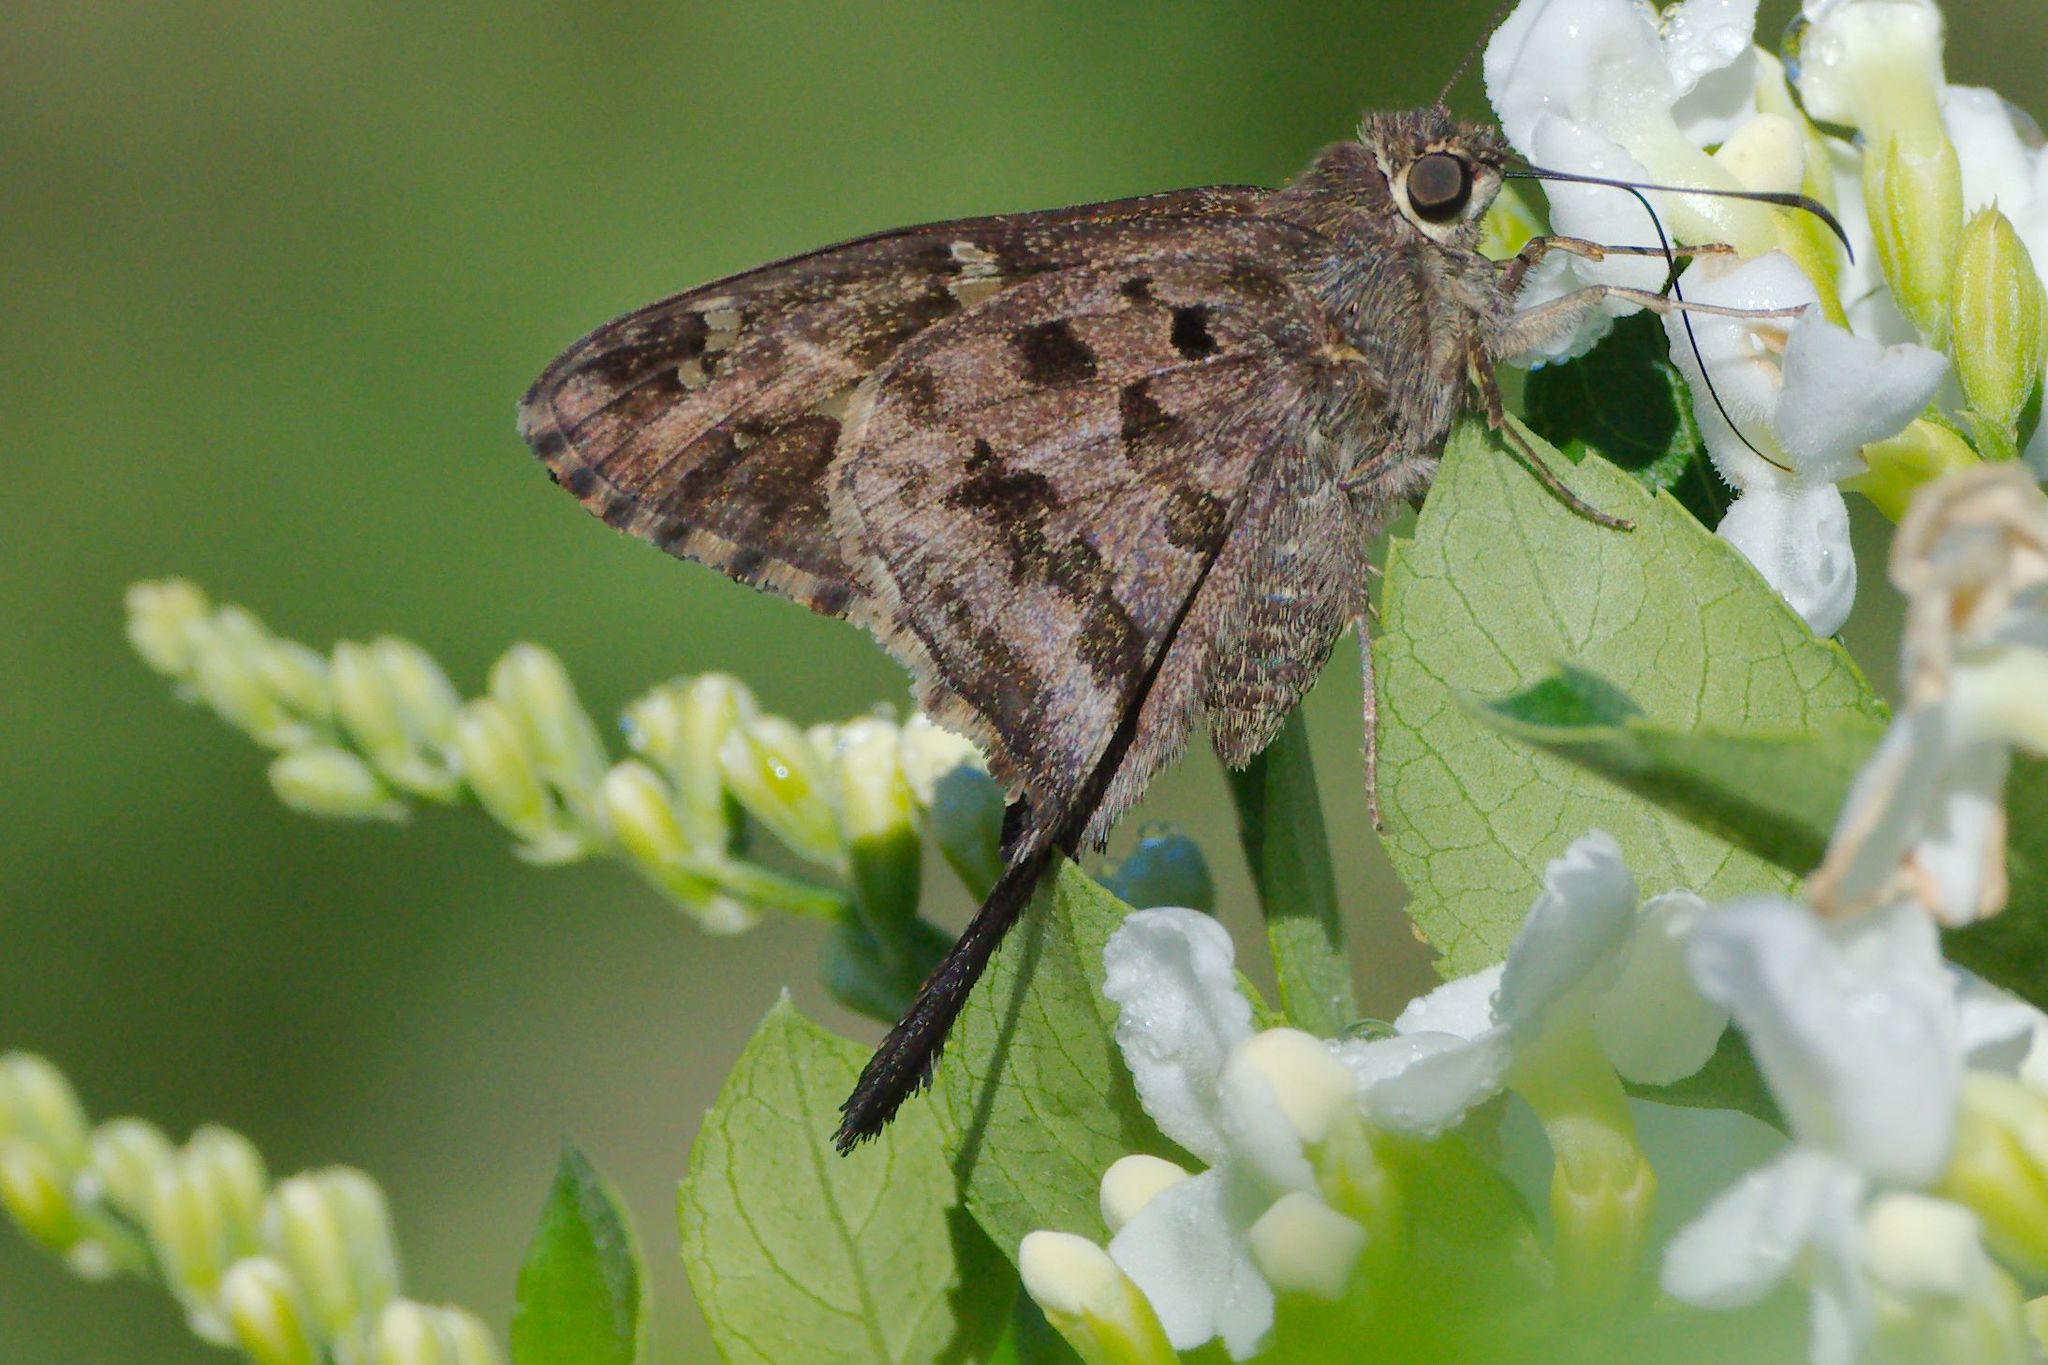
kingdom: Animalia
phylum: Arthropoda
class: Insecta
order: Lepidoptera
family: Hesperiidae
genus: Thorybes
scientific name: Thorybes
